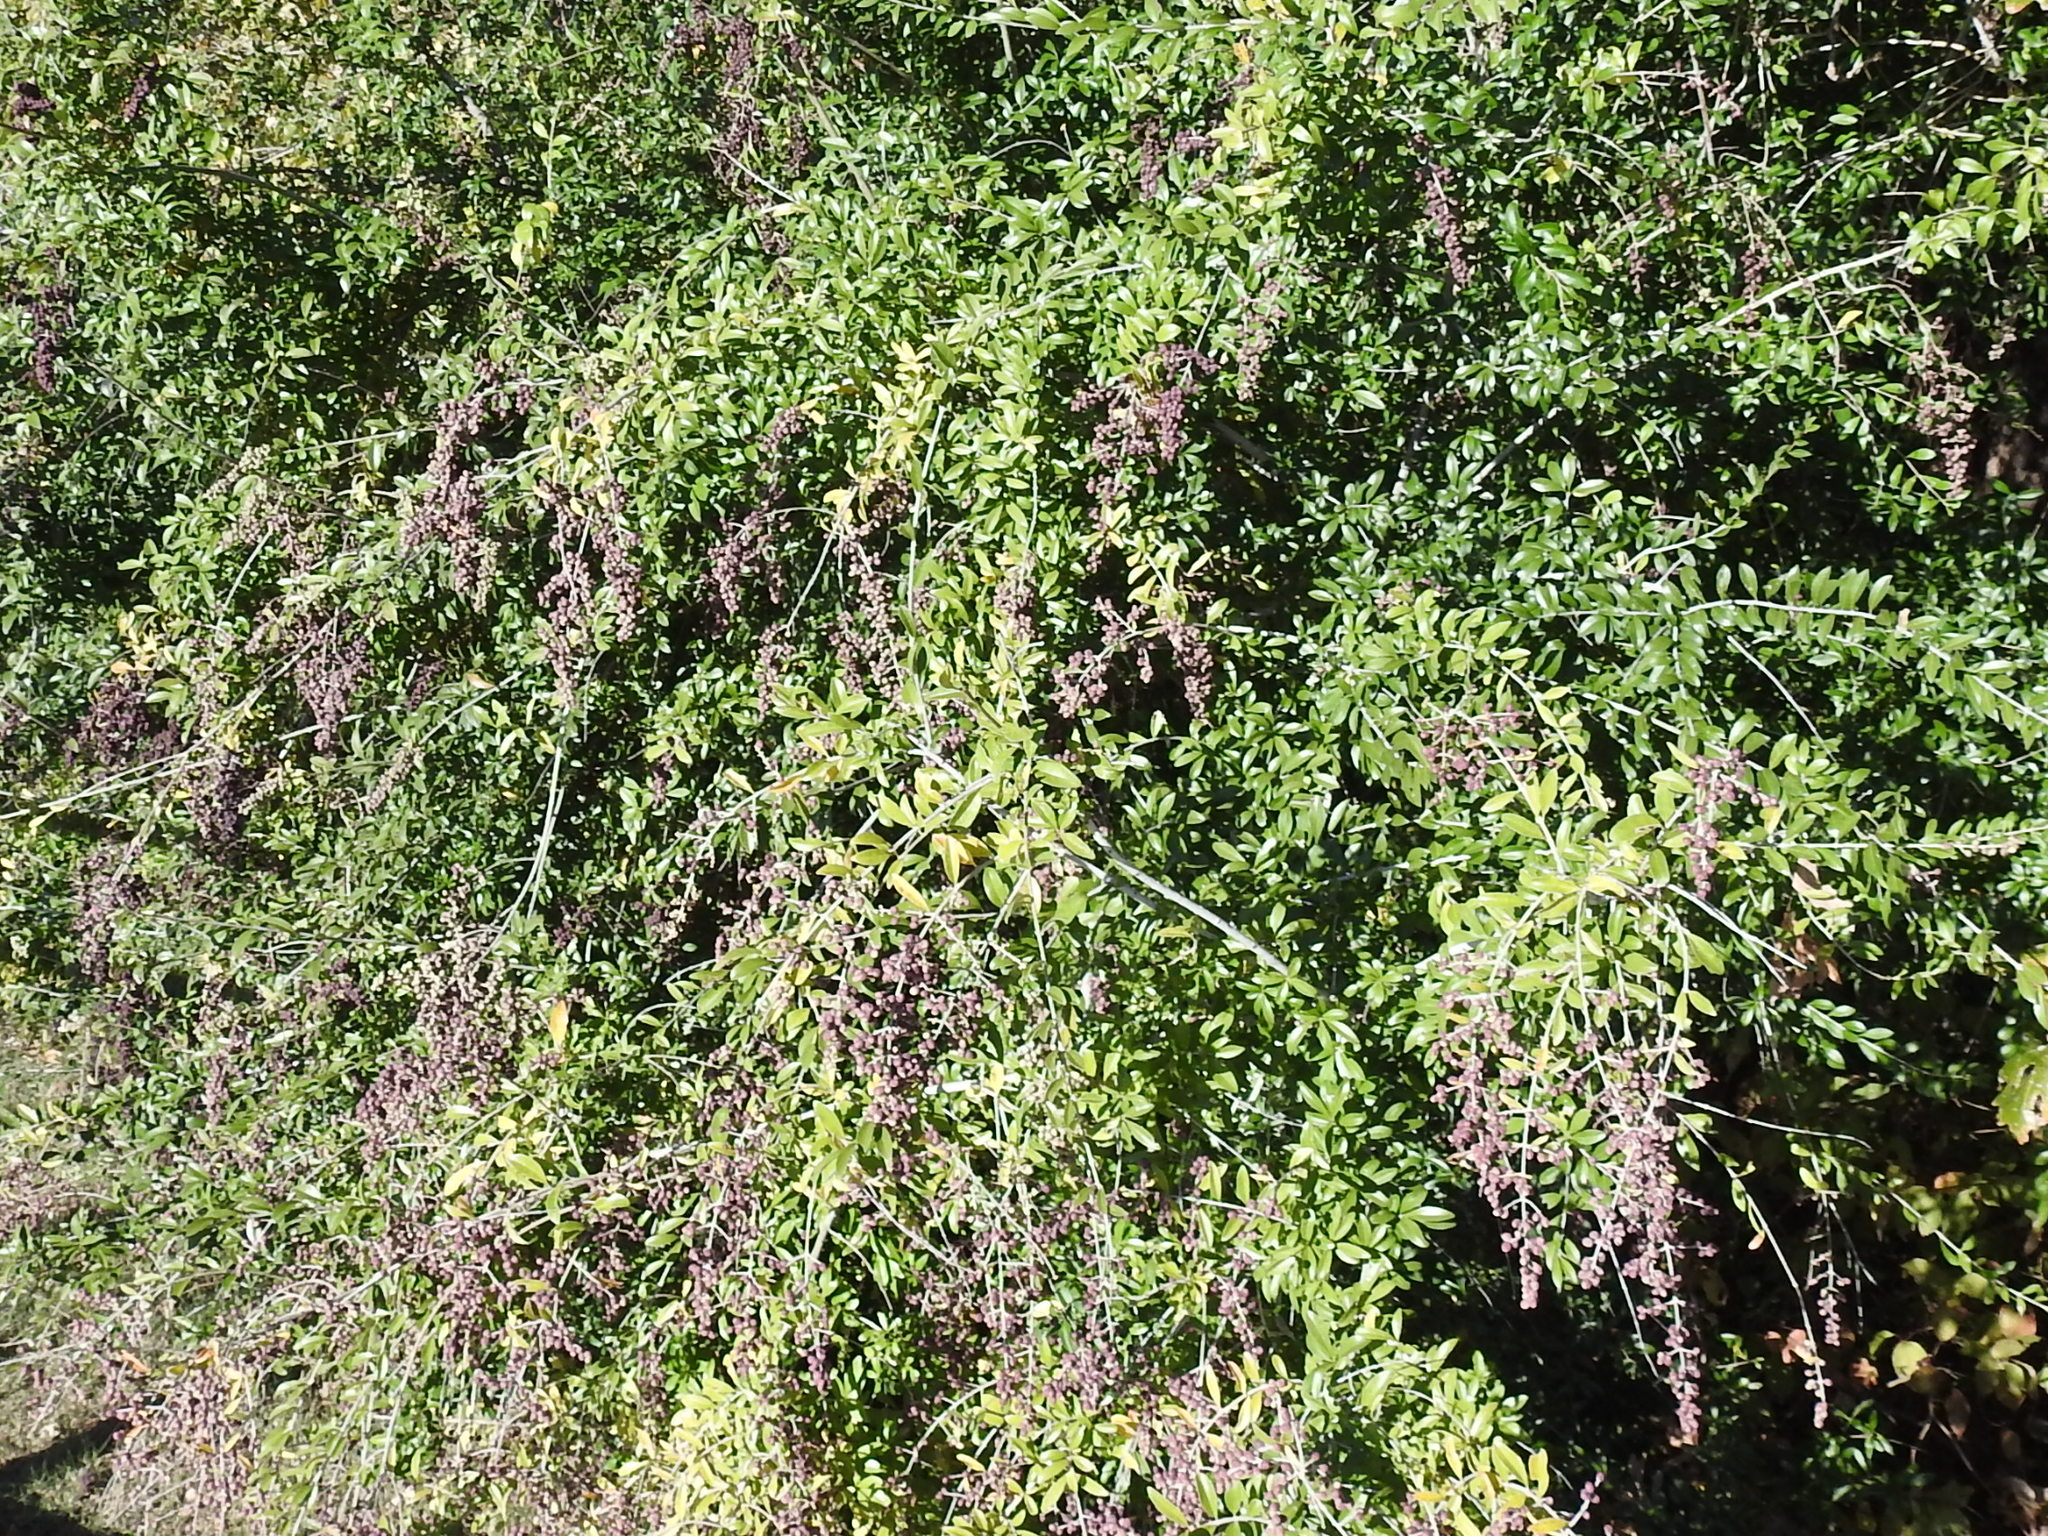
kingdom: Plantae
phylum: Tracheophyta
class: Magnoliopsida
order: Lamiales
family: Oleaceae
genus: Ligustrum
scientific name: Ligustrum quihoui
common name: Waxyleaf privet
